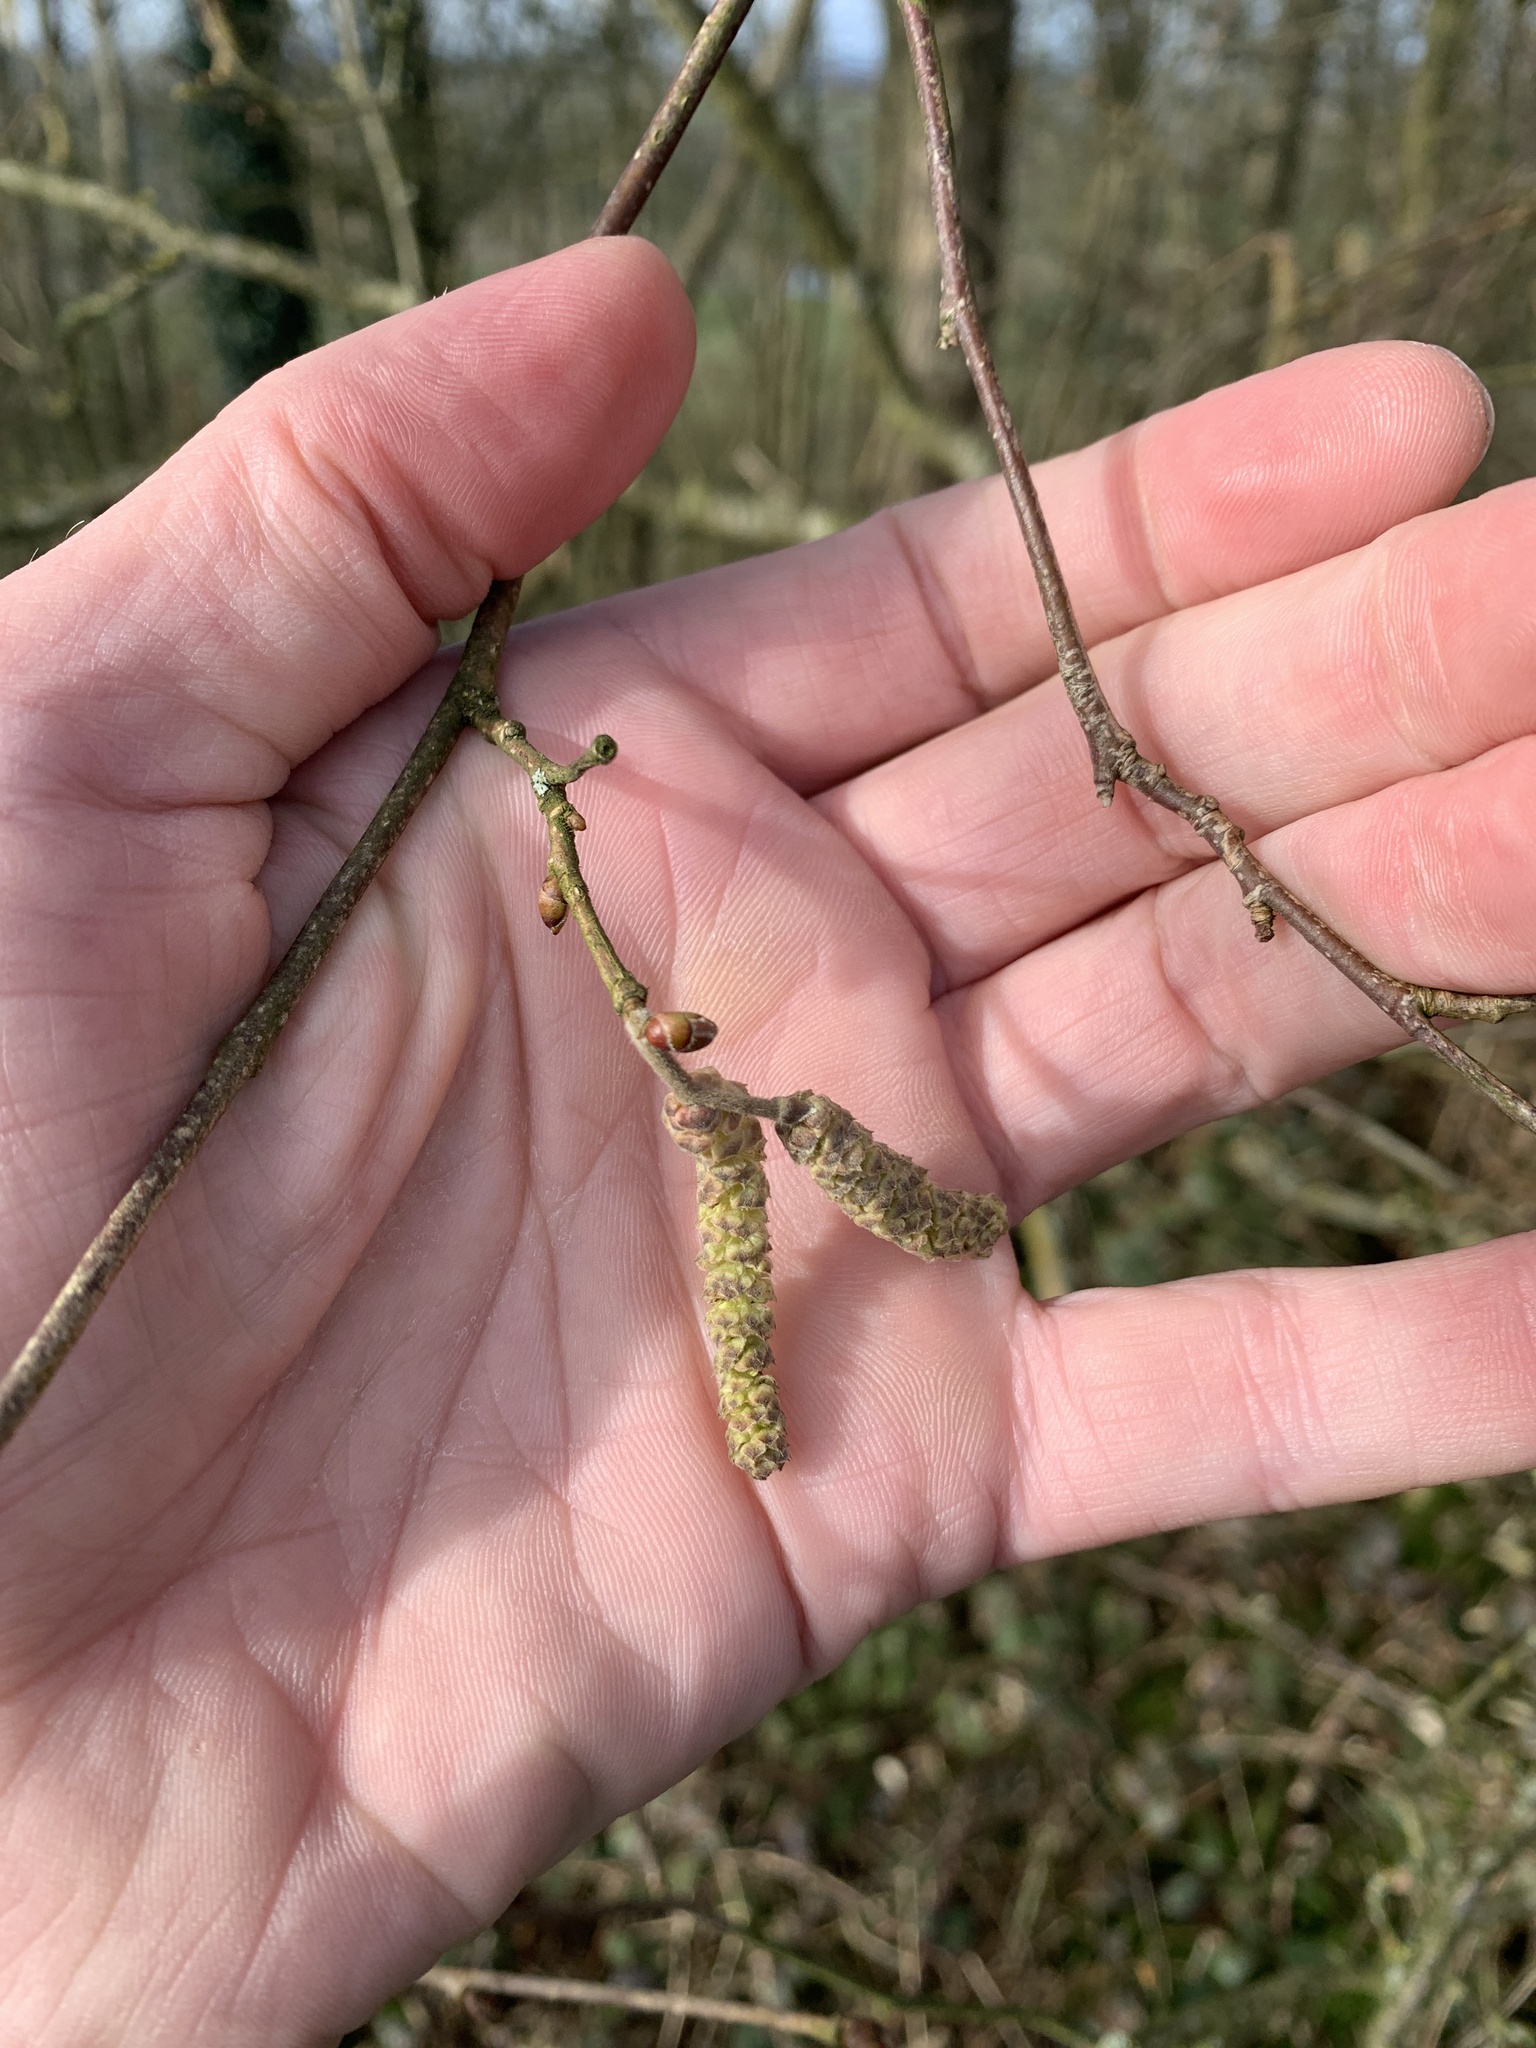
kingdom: Plantae
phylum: Tracheophyta
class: Magnoliopsida
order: Fagales
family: Betulaceae
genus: Corylus
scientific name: Corylus avellana
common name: European hazel
